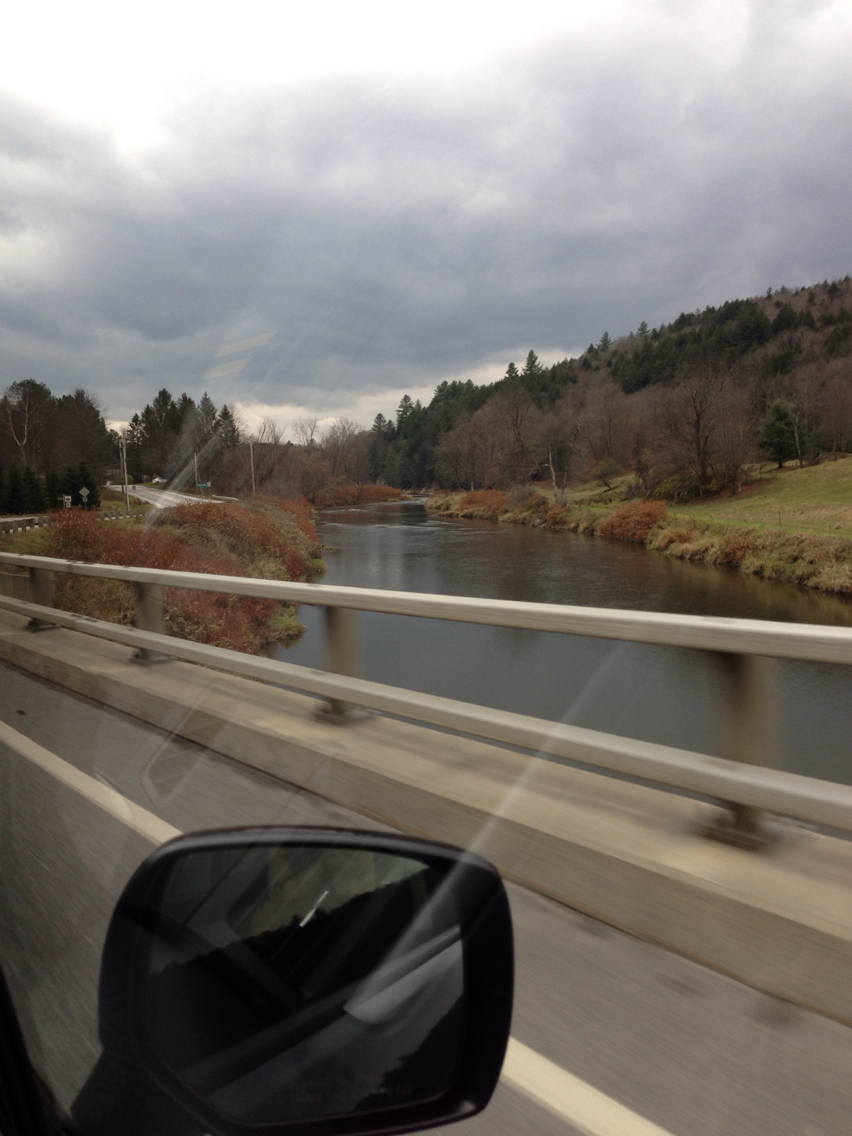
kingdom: Plantae
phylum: Tracheophyta
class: Magnoliopsida
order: Caryophyllales
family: Polygonaceae
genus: Reynoutria
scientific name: Reynoutria japonica
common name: Japanese knotweed
